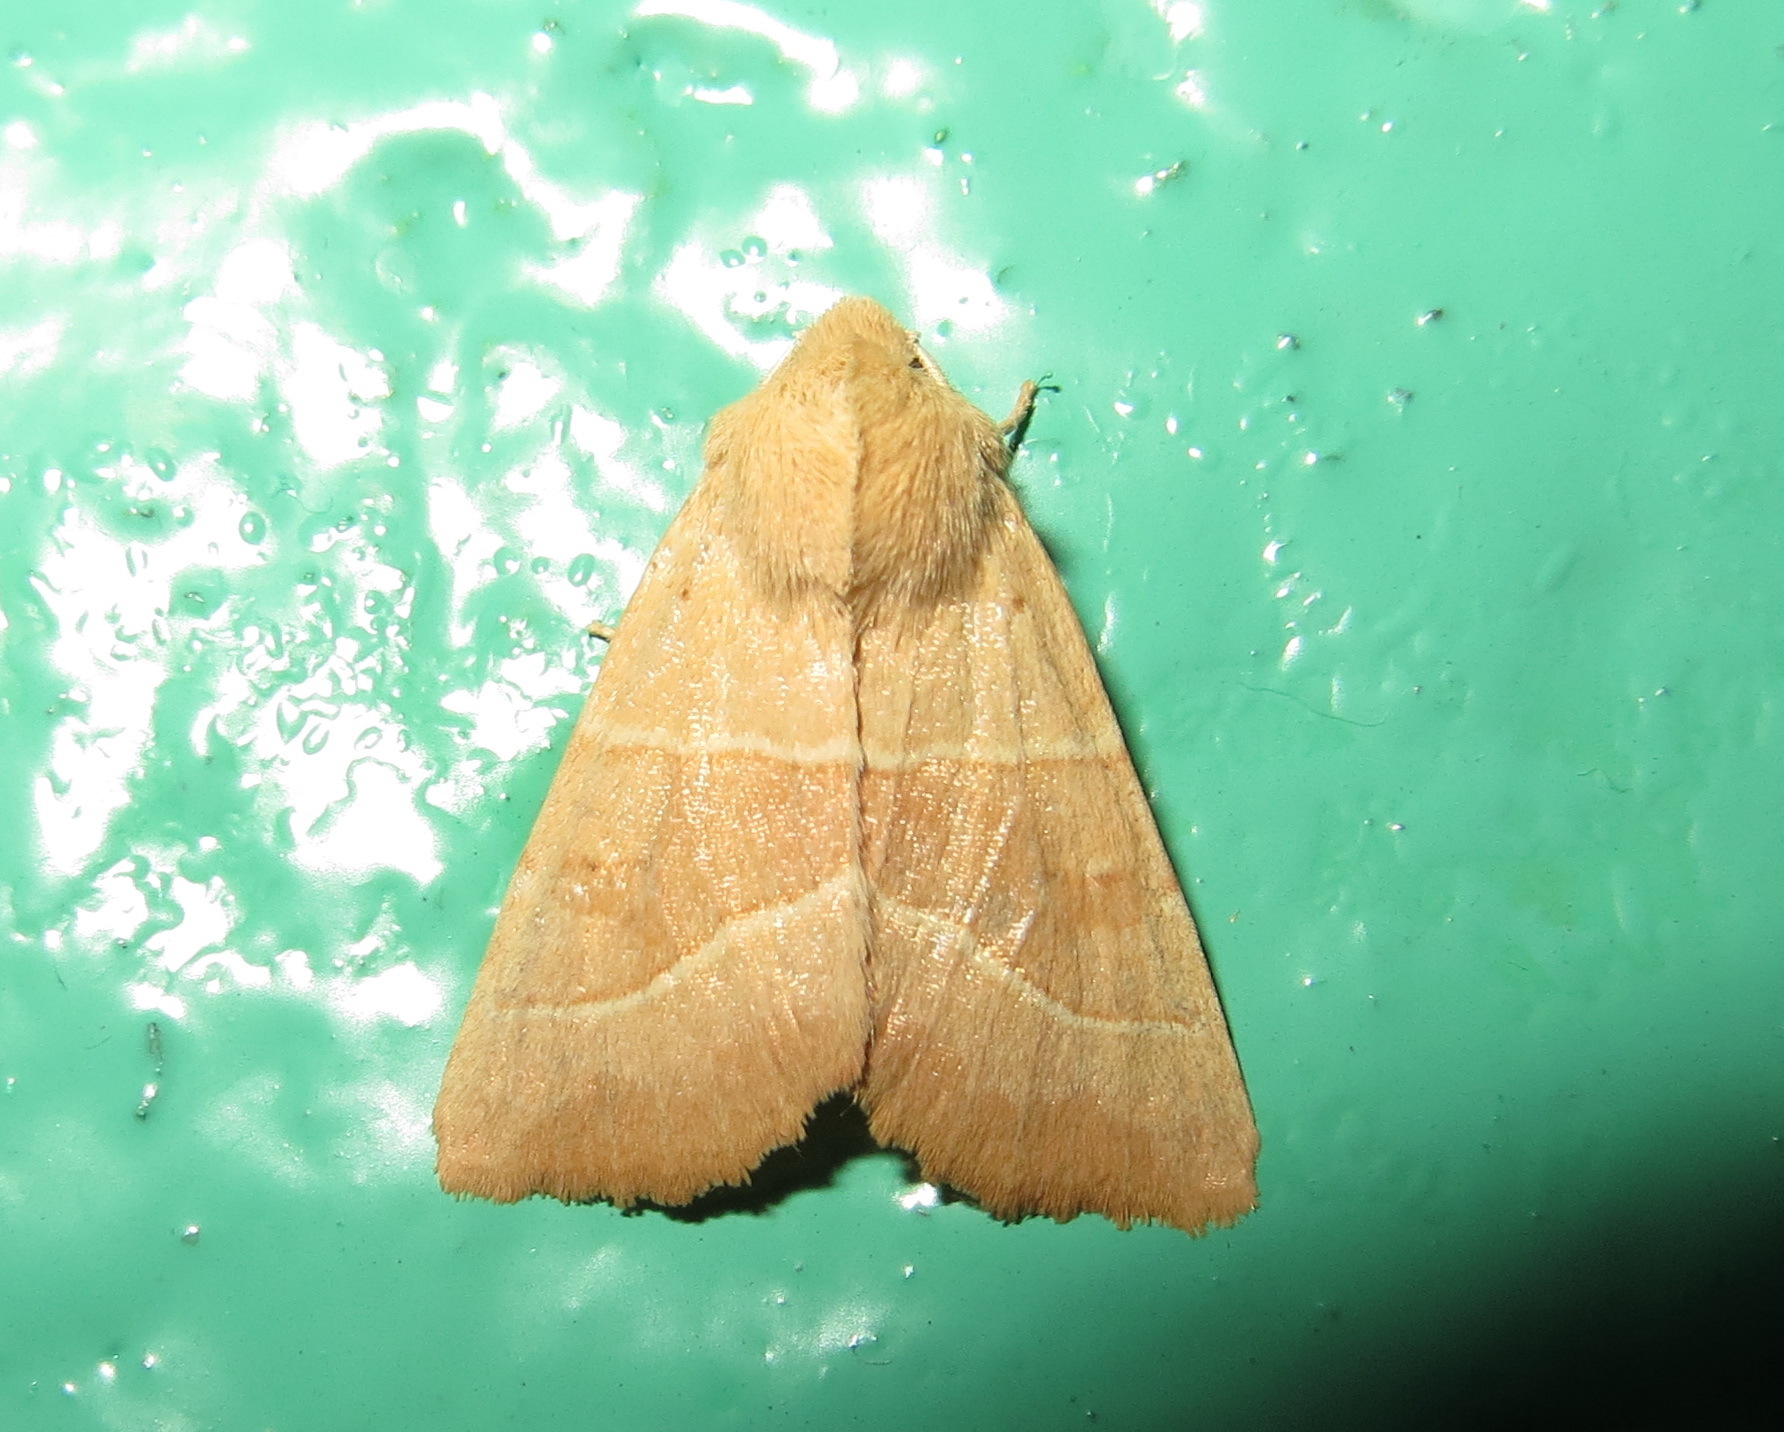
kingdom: Animalia
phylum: Arthropoda
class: Insecta
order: Lepidoptera
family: Noctuidae
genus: Atethmia
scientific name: Atethmia centrago
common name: Centre-barred sallow
